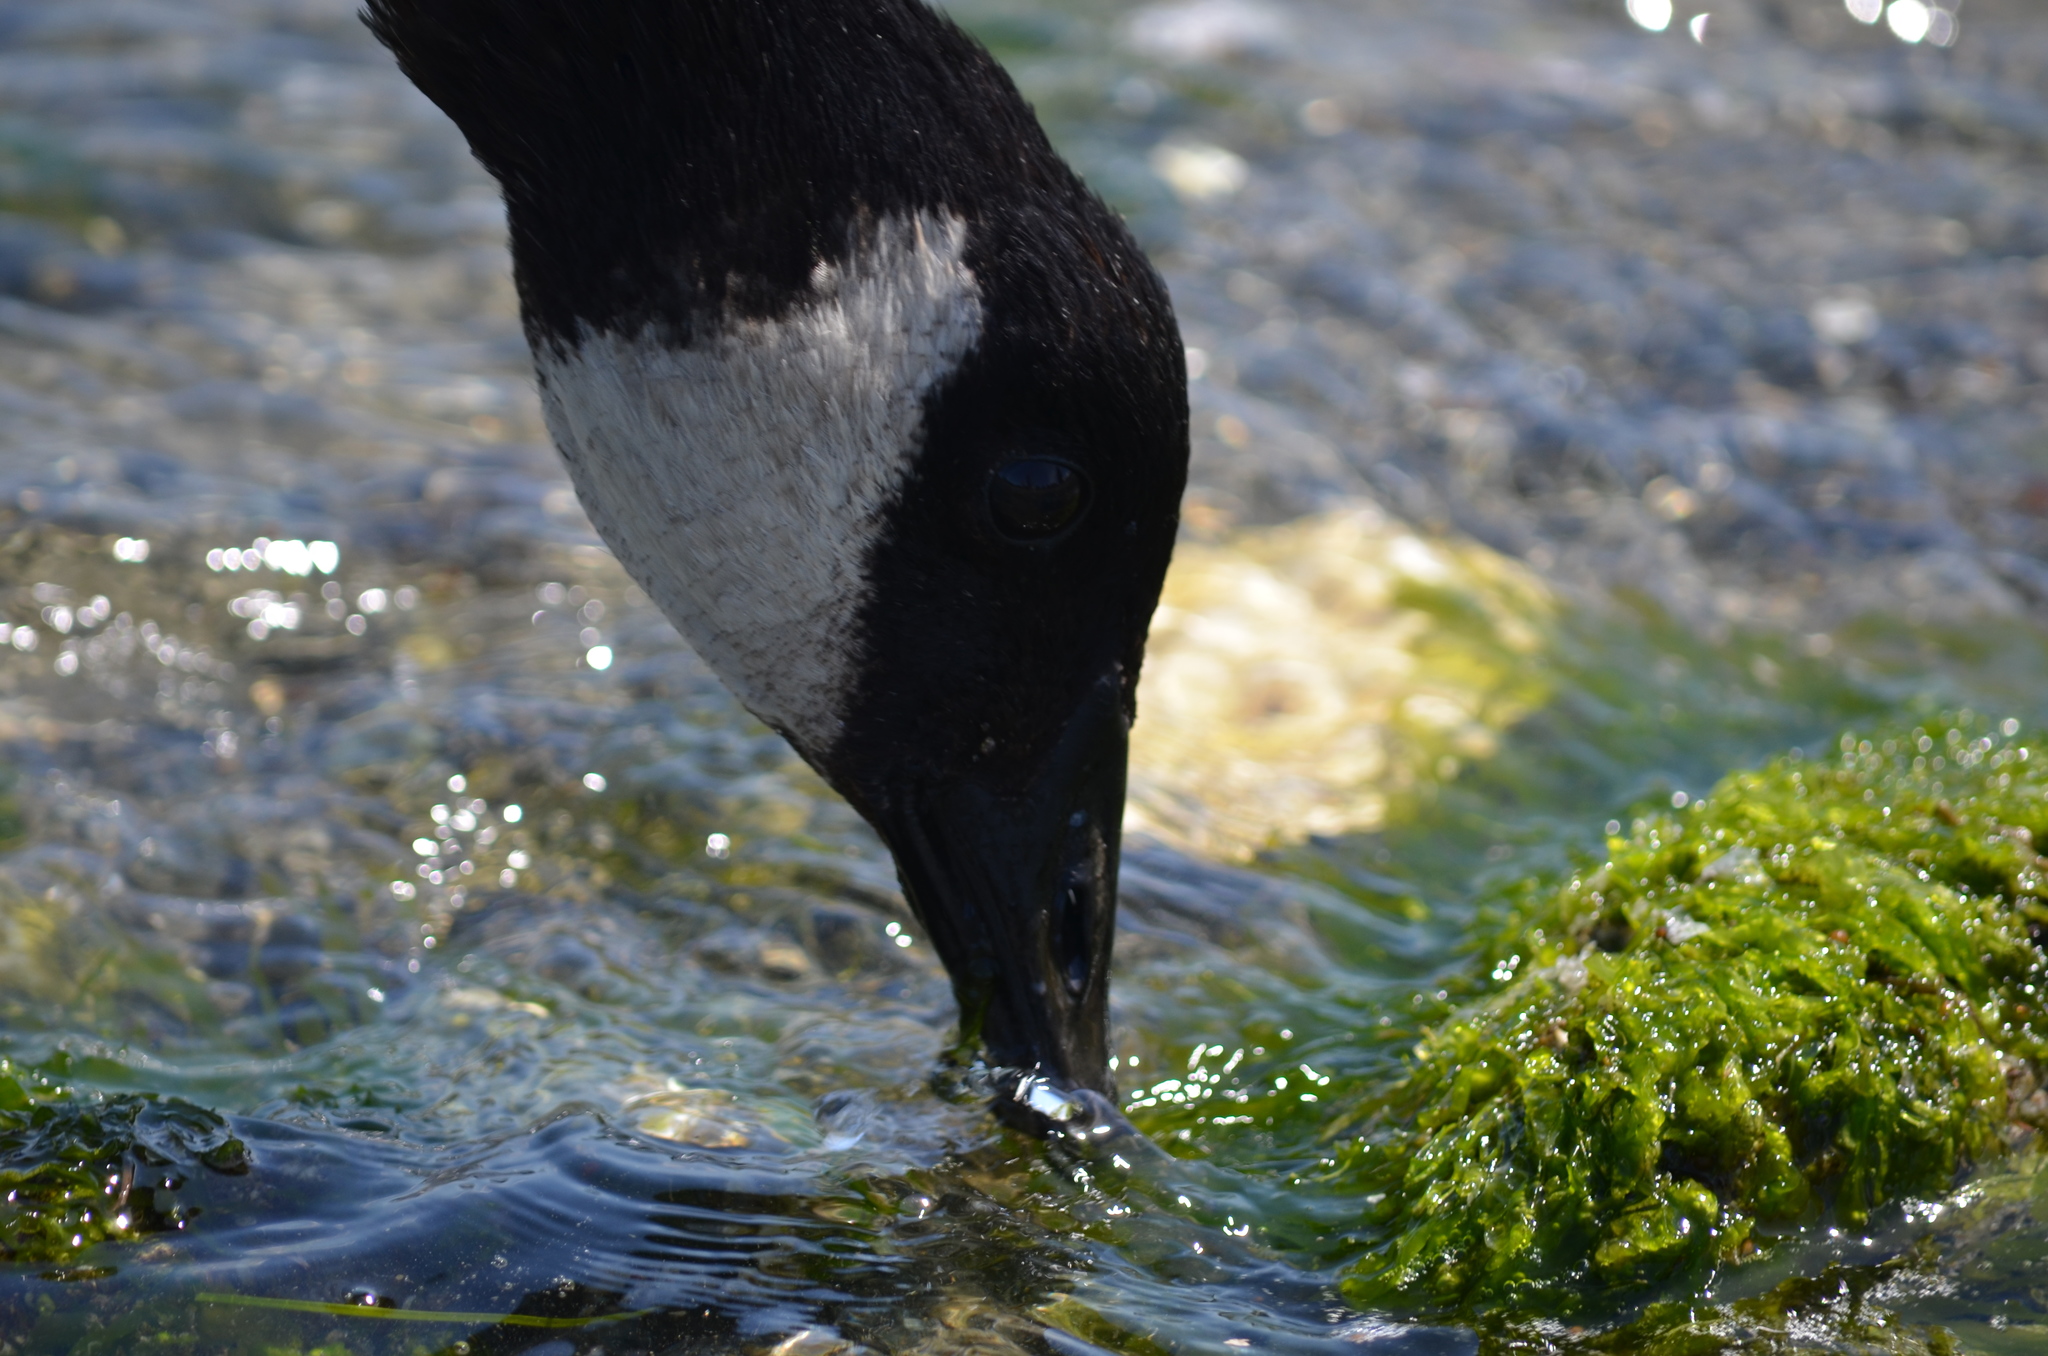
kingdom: Animalia
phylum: Chordata
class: Aves
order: Anseriformes
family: Anatidae
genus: Branta
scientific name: Branta canadensis
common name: Canada goose
